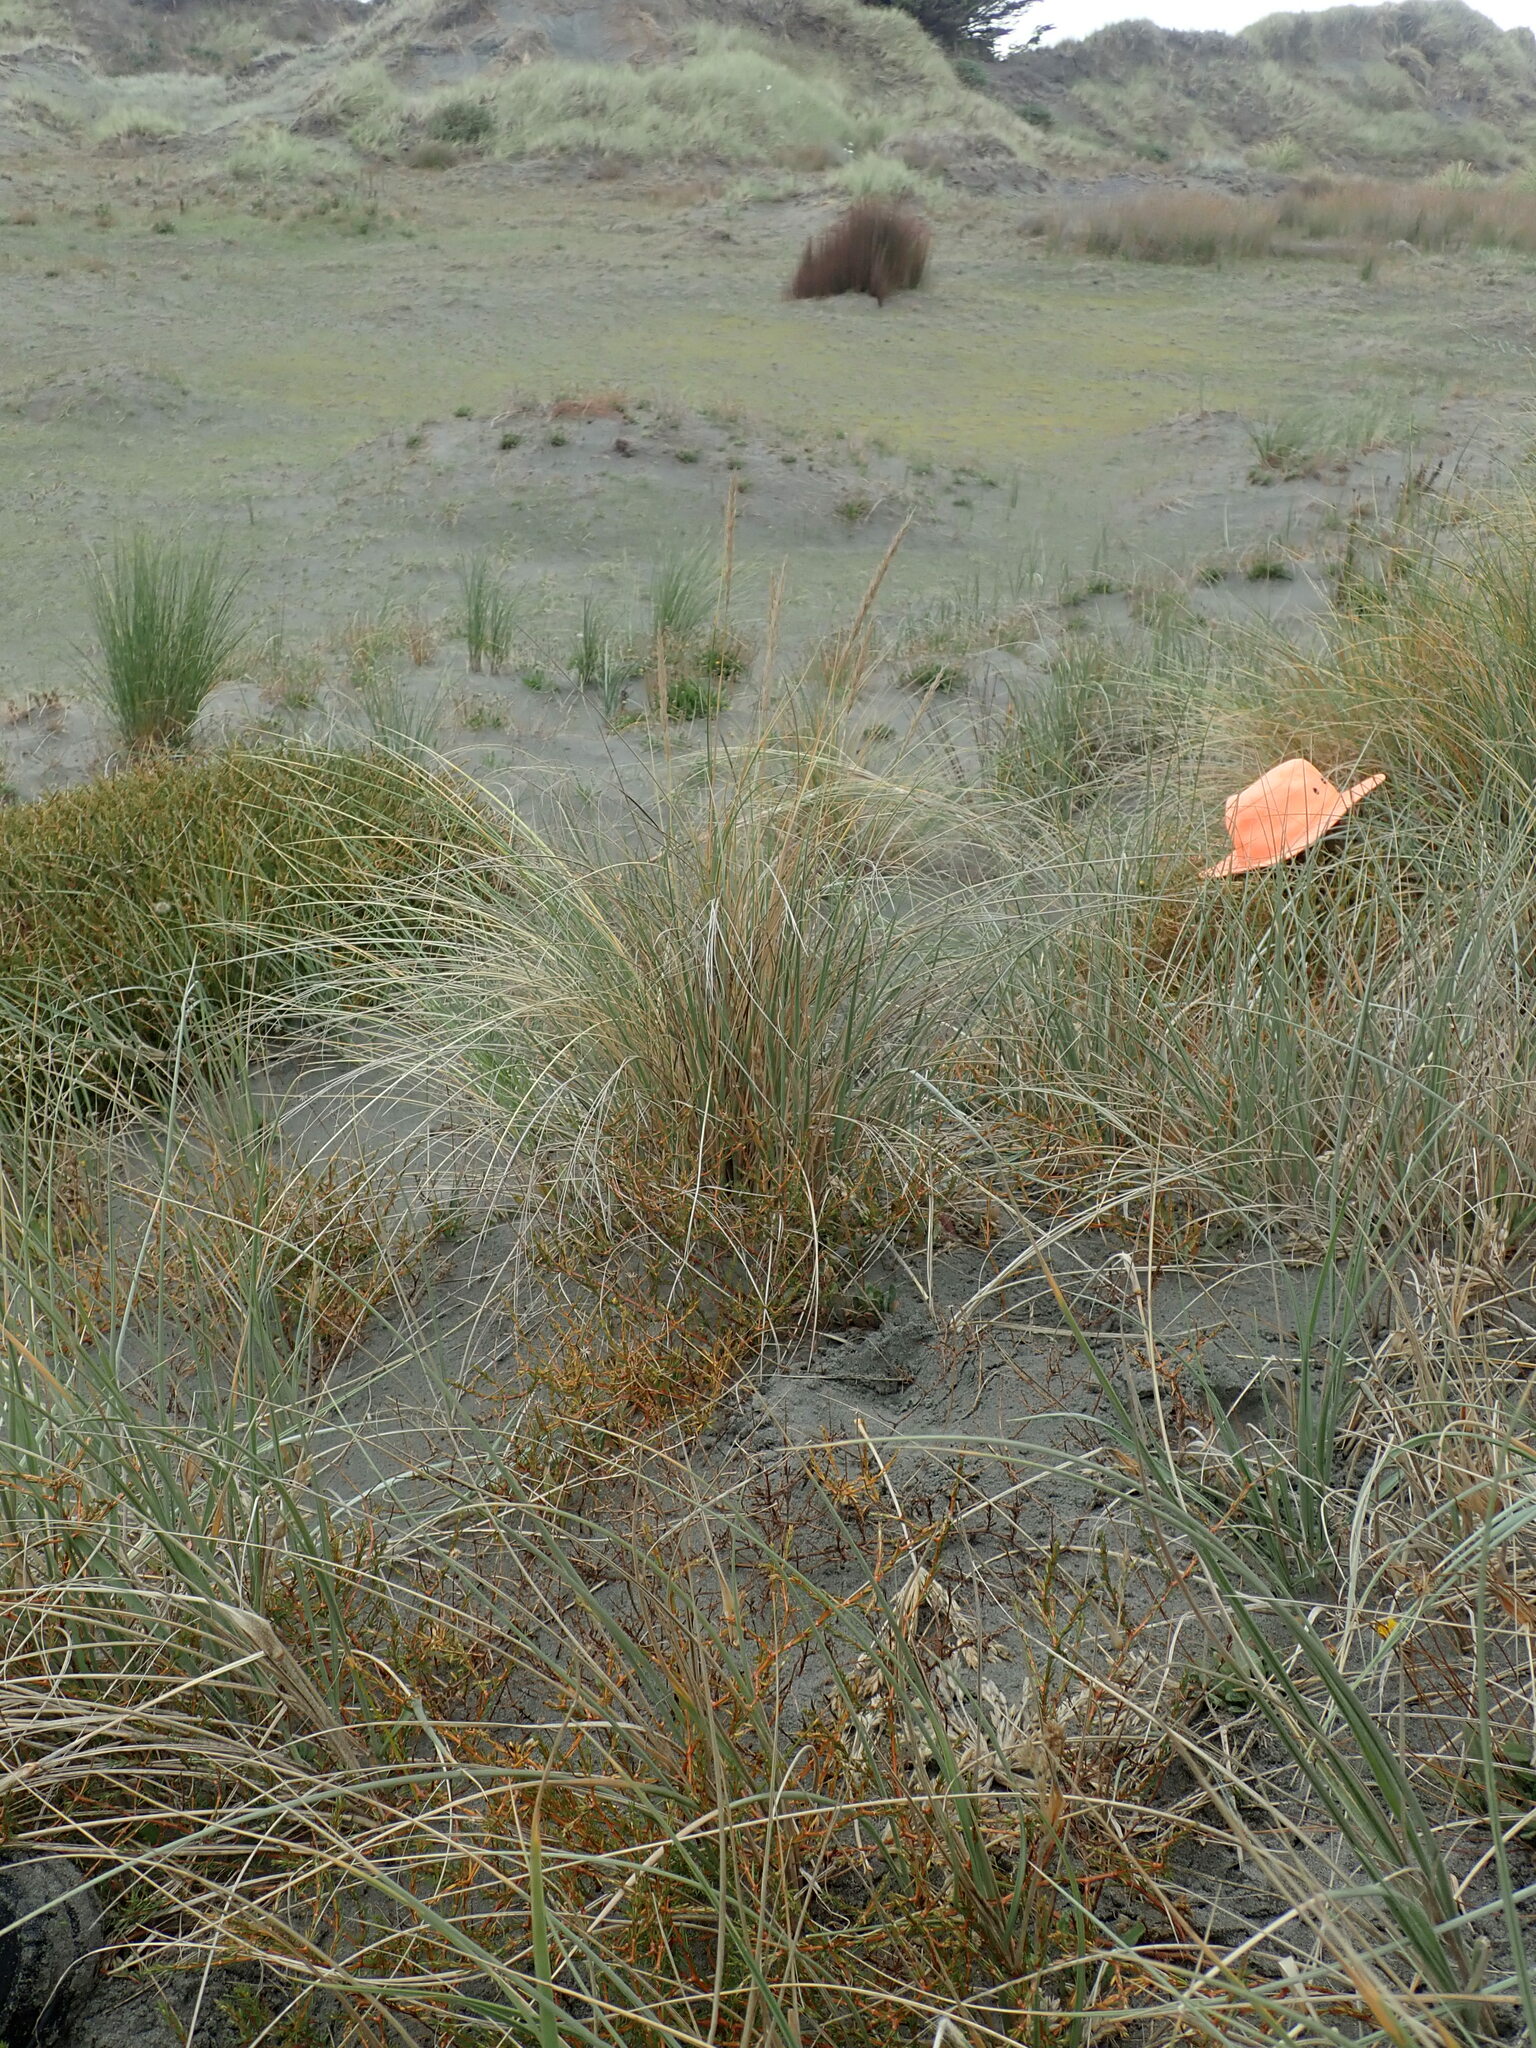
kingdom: Plantae
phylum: Tracheophyta
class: Magnoliopsida
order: Gentianales
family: Rubiaceae
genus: Coprosma
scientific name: Coprosma acerosa
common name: Sand coprosma
